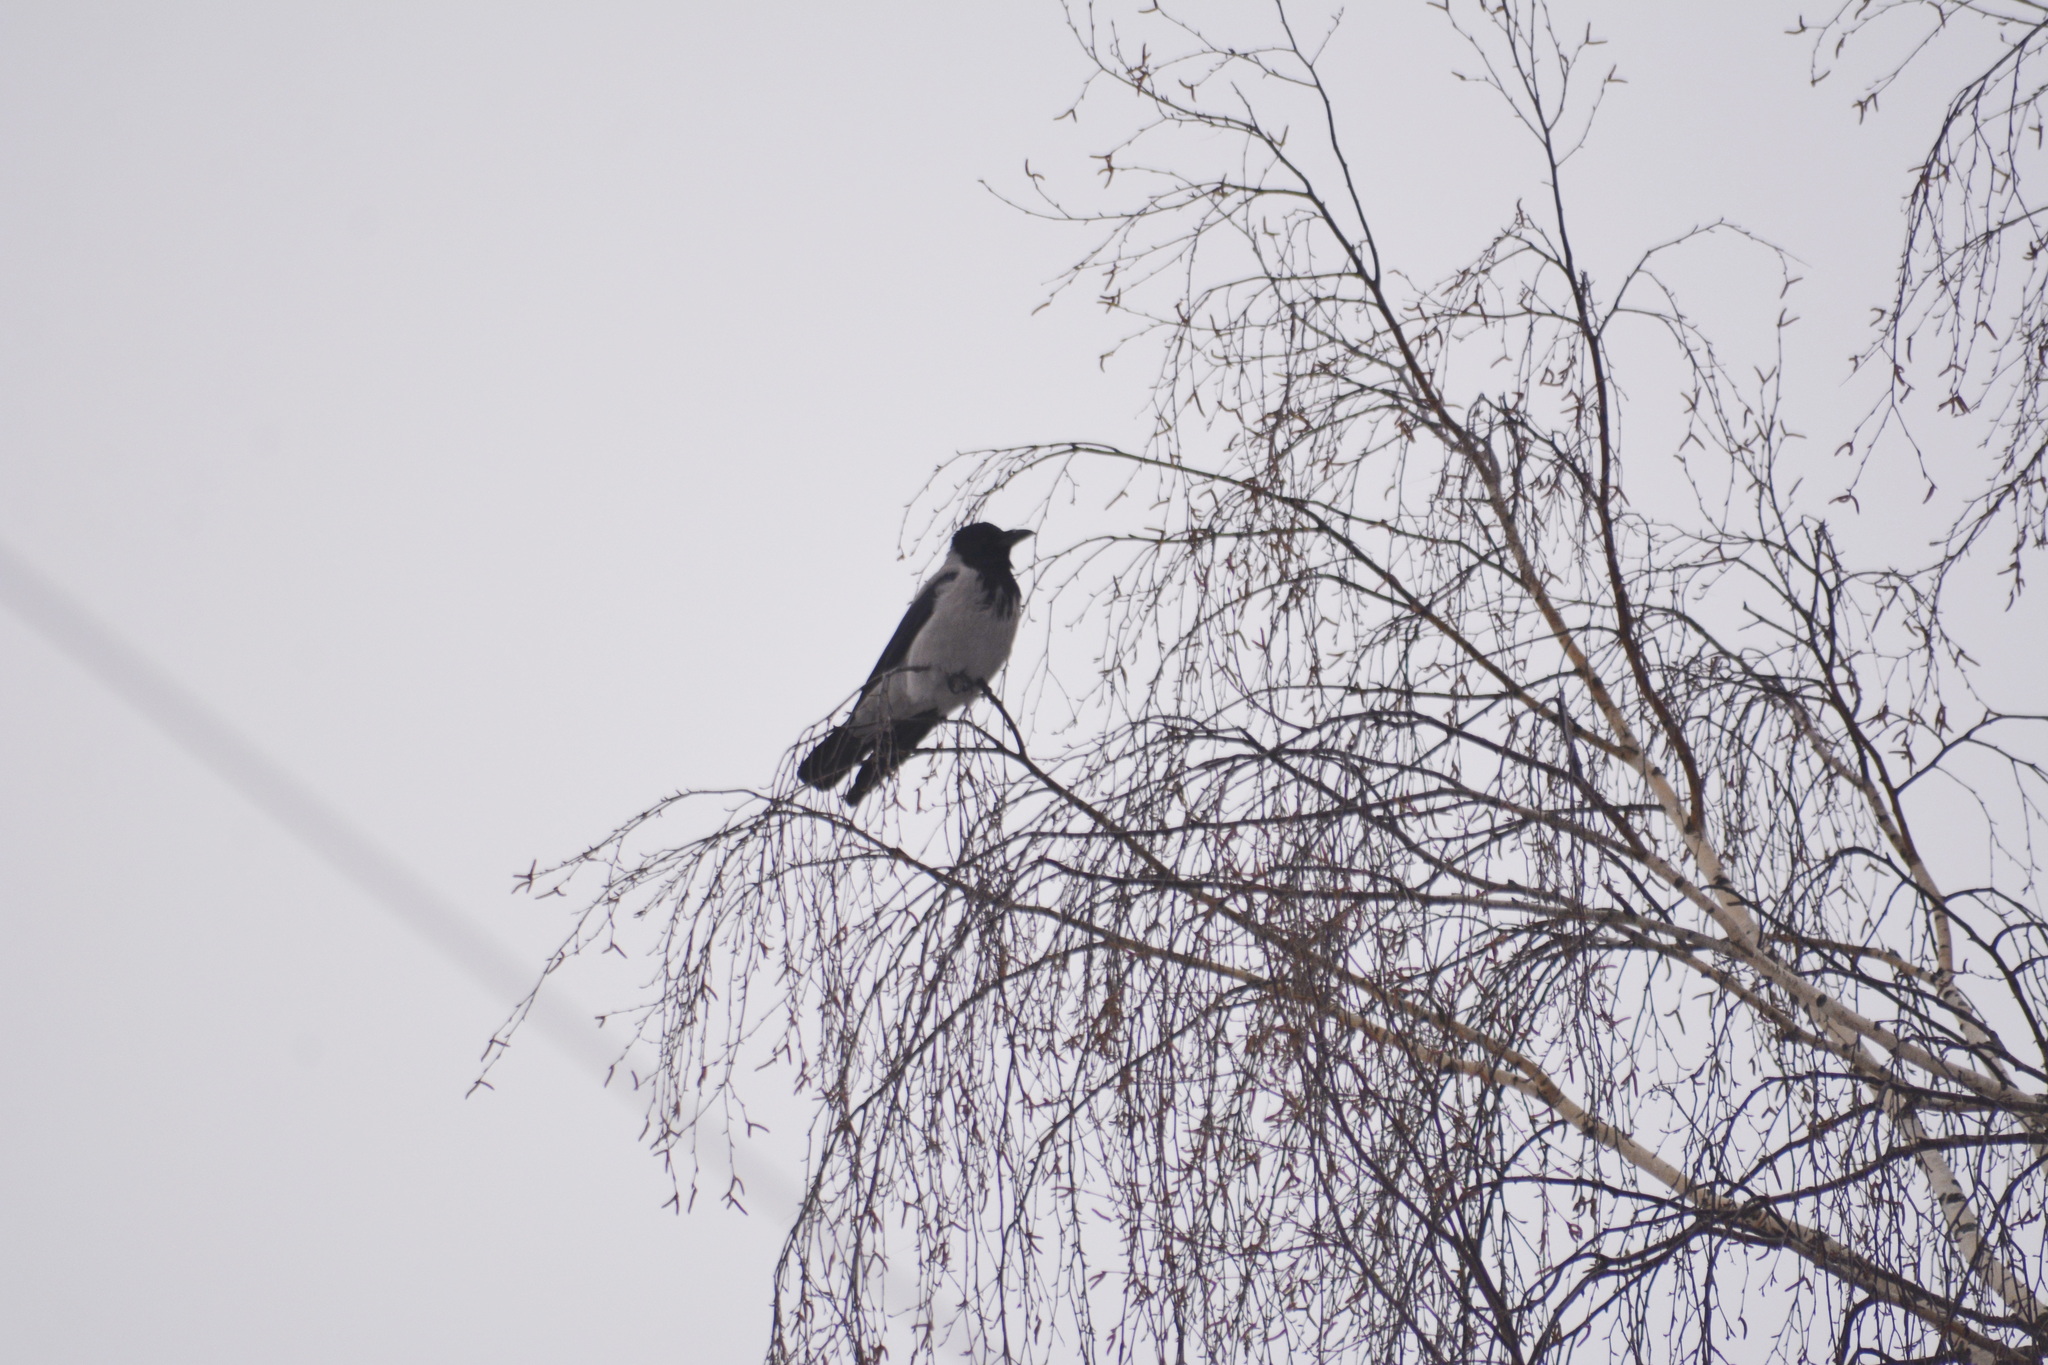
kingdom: Animalia
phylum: Chordata
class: Aves
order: Passeriformes
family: Corvidae
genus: Corvus
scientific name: Corvus cornix
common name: Hooded crow
